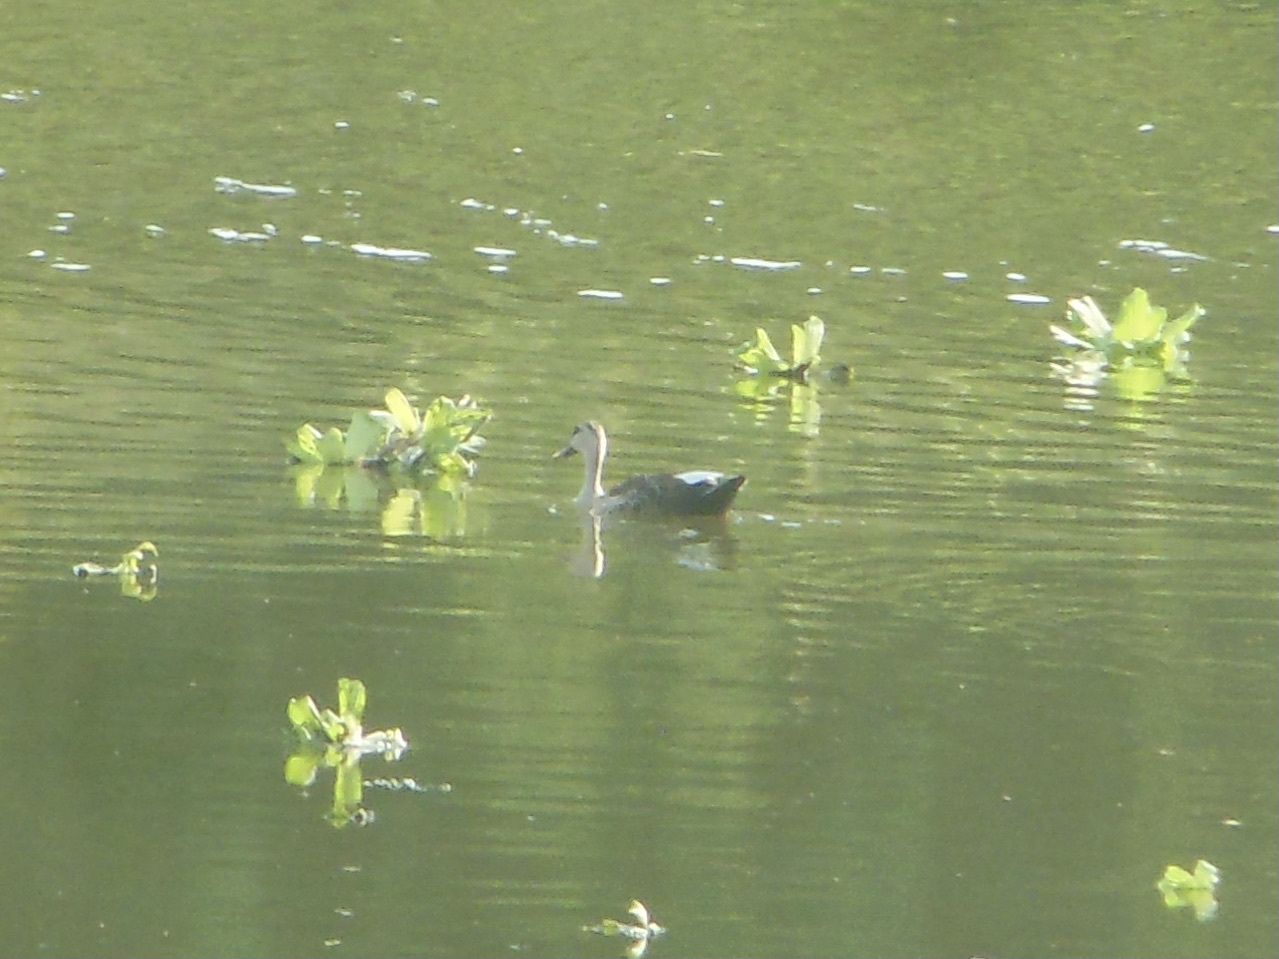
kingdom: Animalia
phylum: Chordata
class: Aves
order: Anseriformes
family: Anatidae
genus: Anas
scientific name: Anas poecilorhyncha
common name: Indian spot-billed duck
